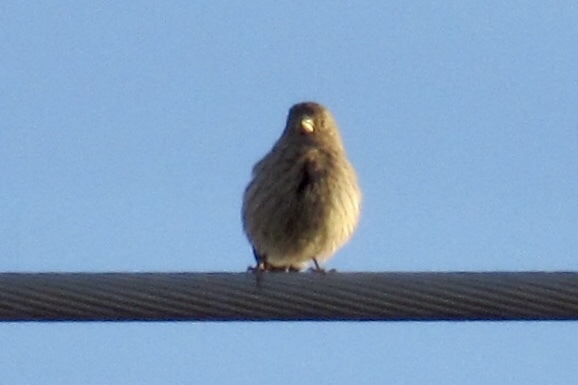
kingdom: Animalia
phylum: Chordata
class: Aves
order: Passeriformes
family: Fringillidae
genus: Haemorhous
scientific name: Haemorhous mexicanus
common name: House finch
